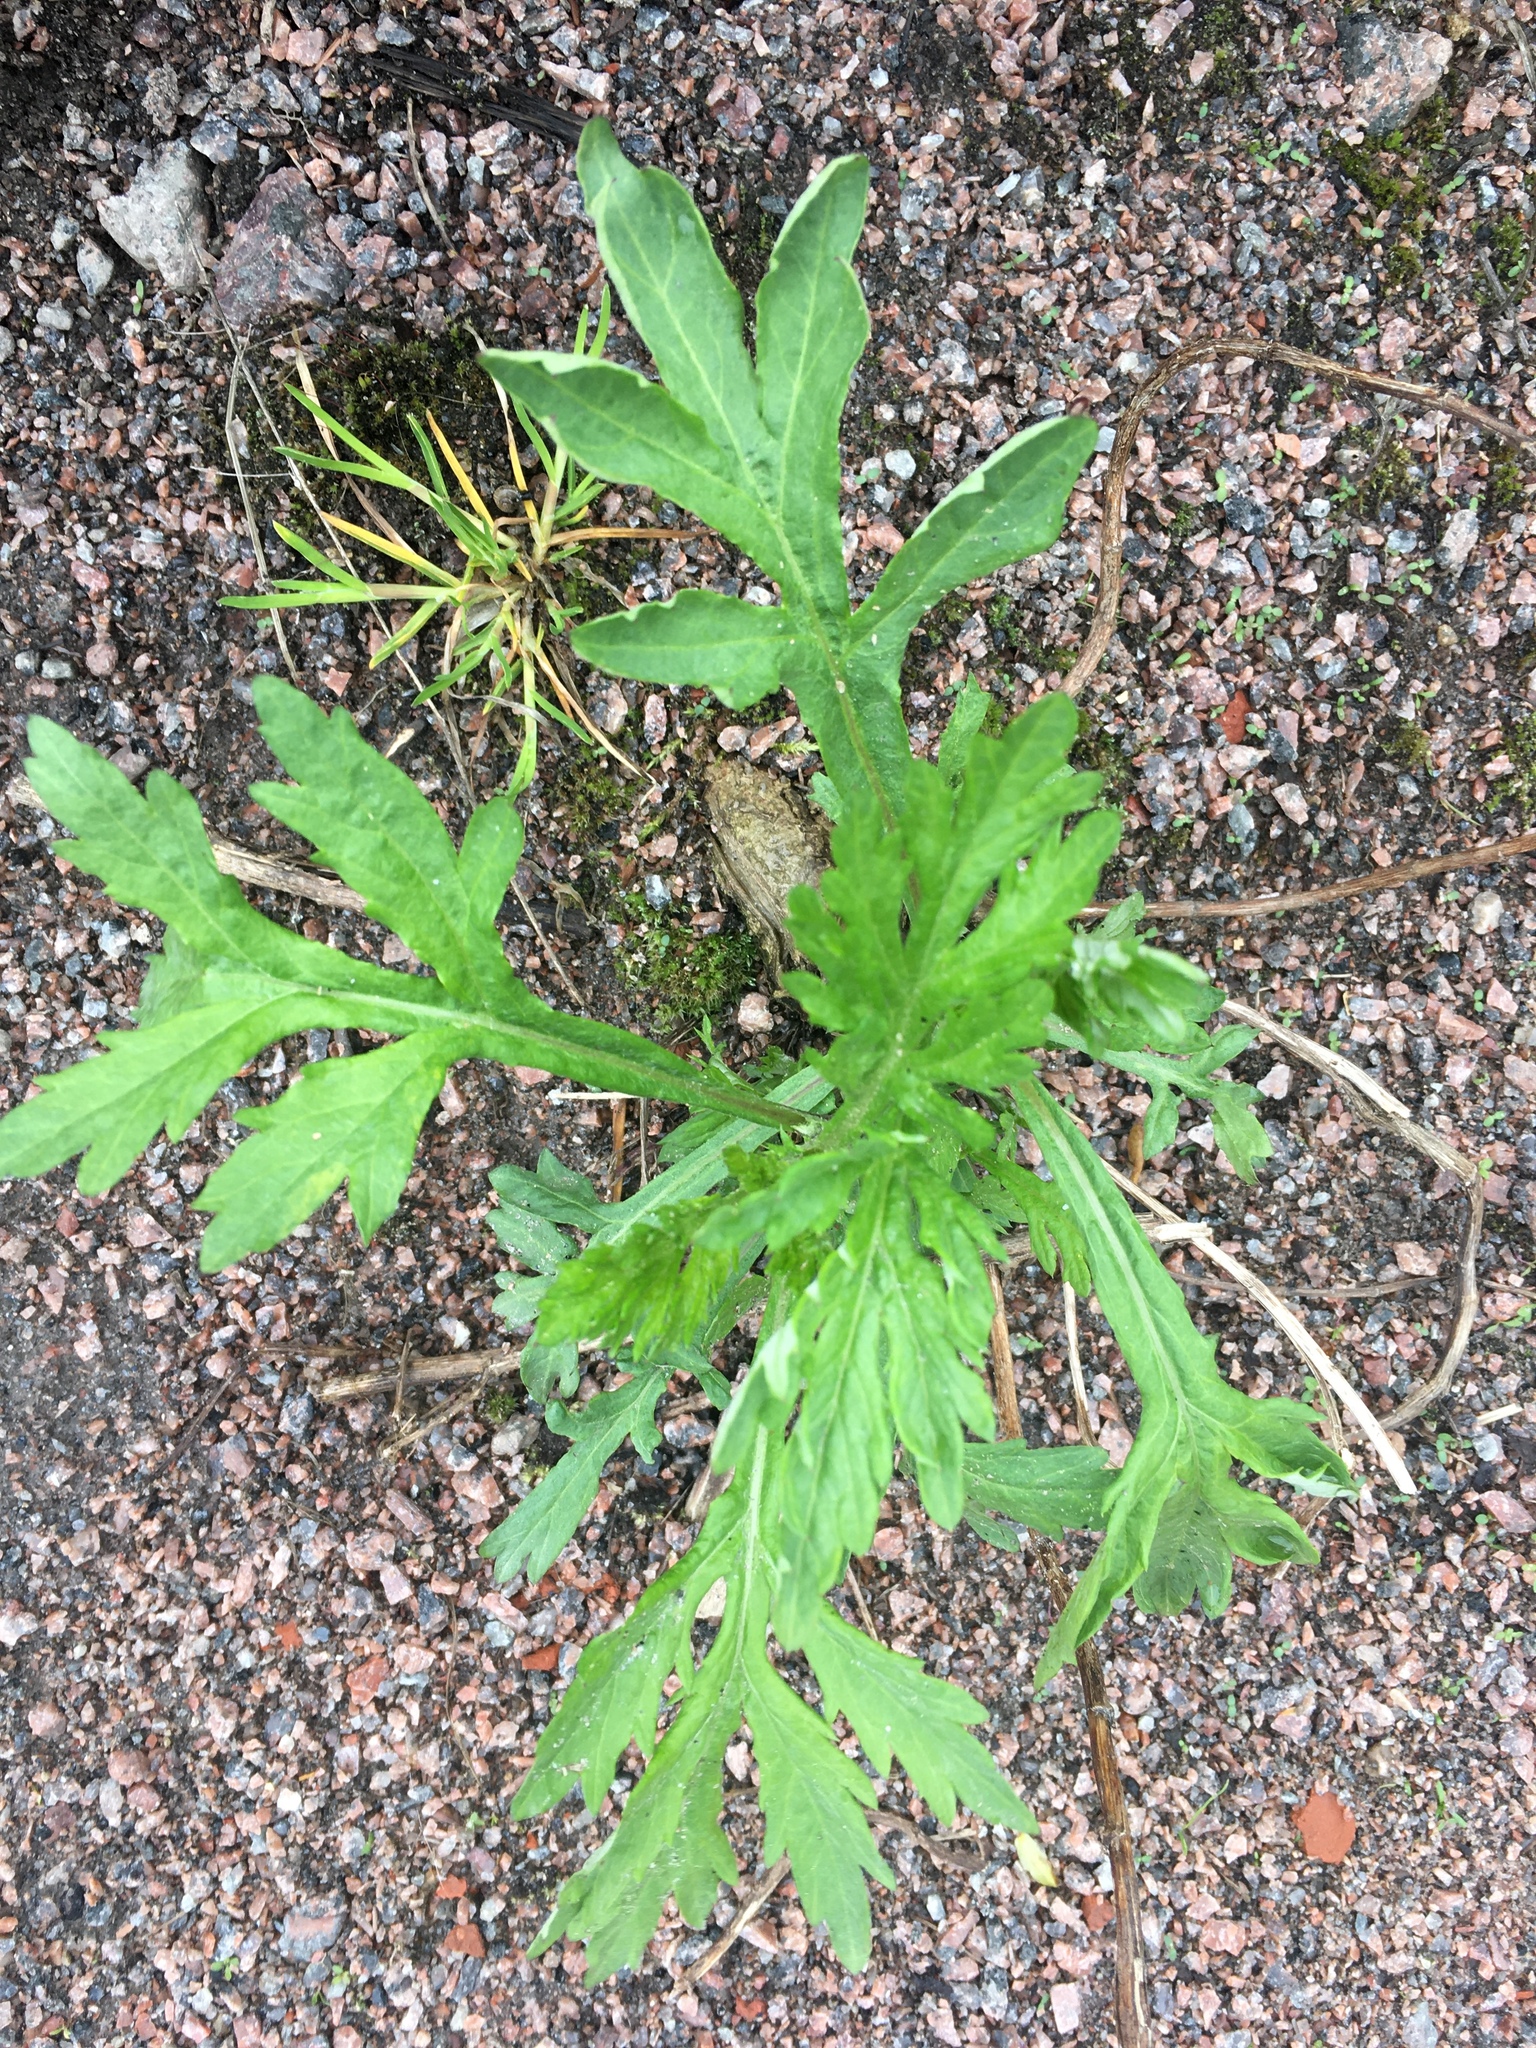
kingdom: Plantae
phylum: Tracheophyta
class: Magnoliopsida
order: Asterales
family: Asteraceae
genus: Artemisia
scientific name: Artemisia vulgaris
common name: Mugwort
